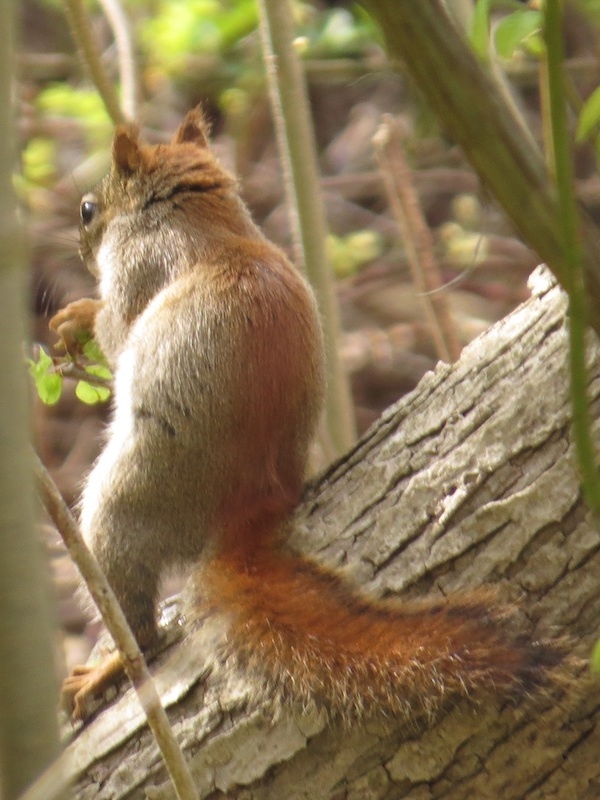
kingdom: Animalia
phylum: Chordata
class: Mammalia
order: Rodentia
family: Sciuridae
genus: Tamiasciurus
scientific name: Tamiasciurus hudsonicus
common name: Red squirrel
